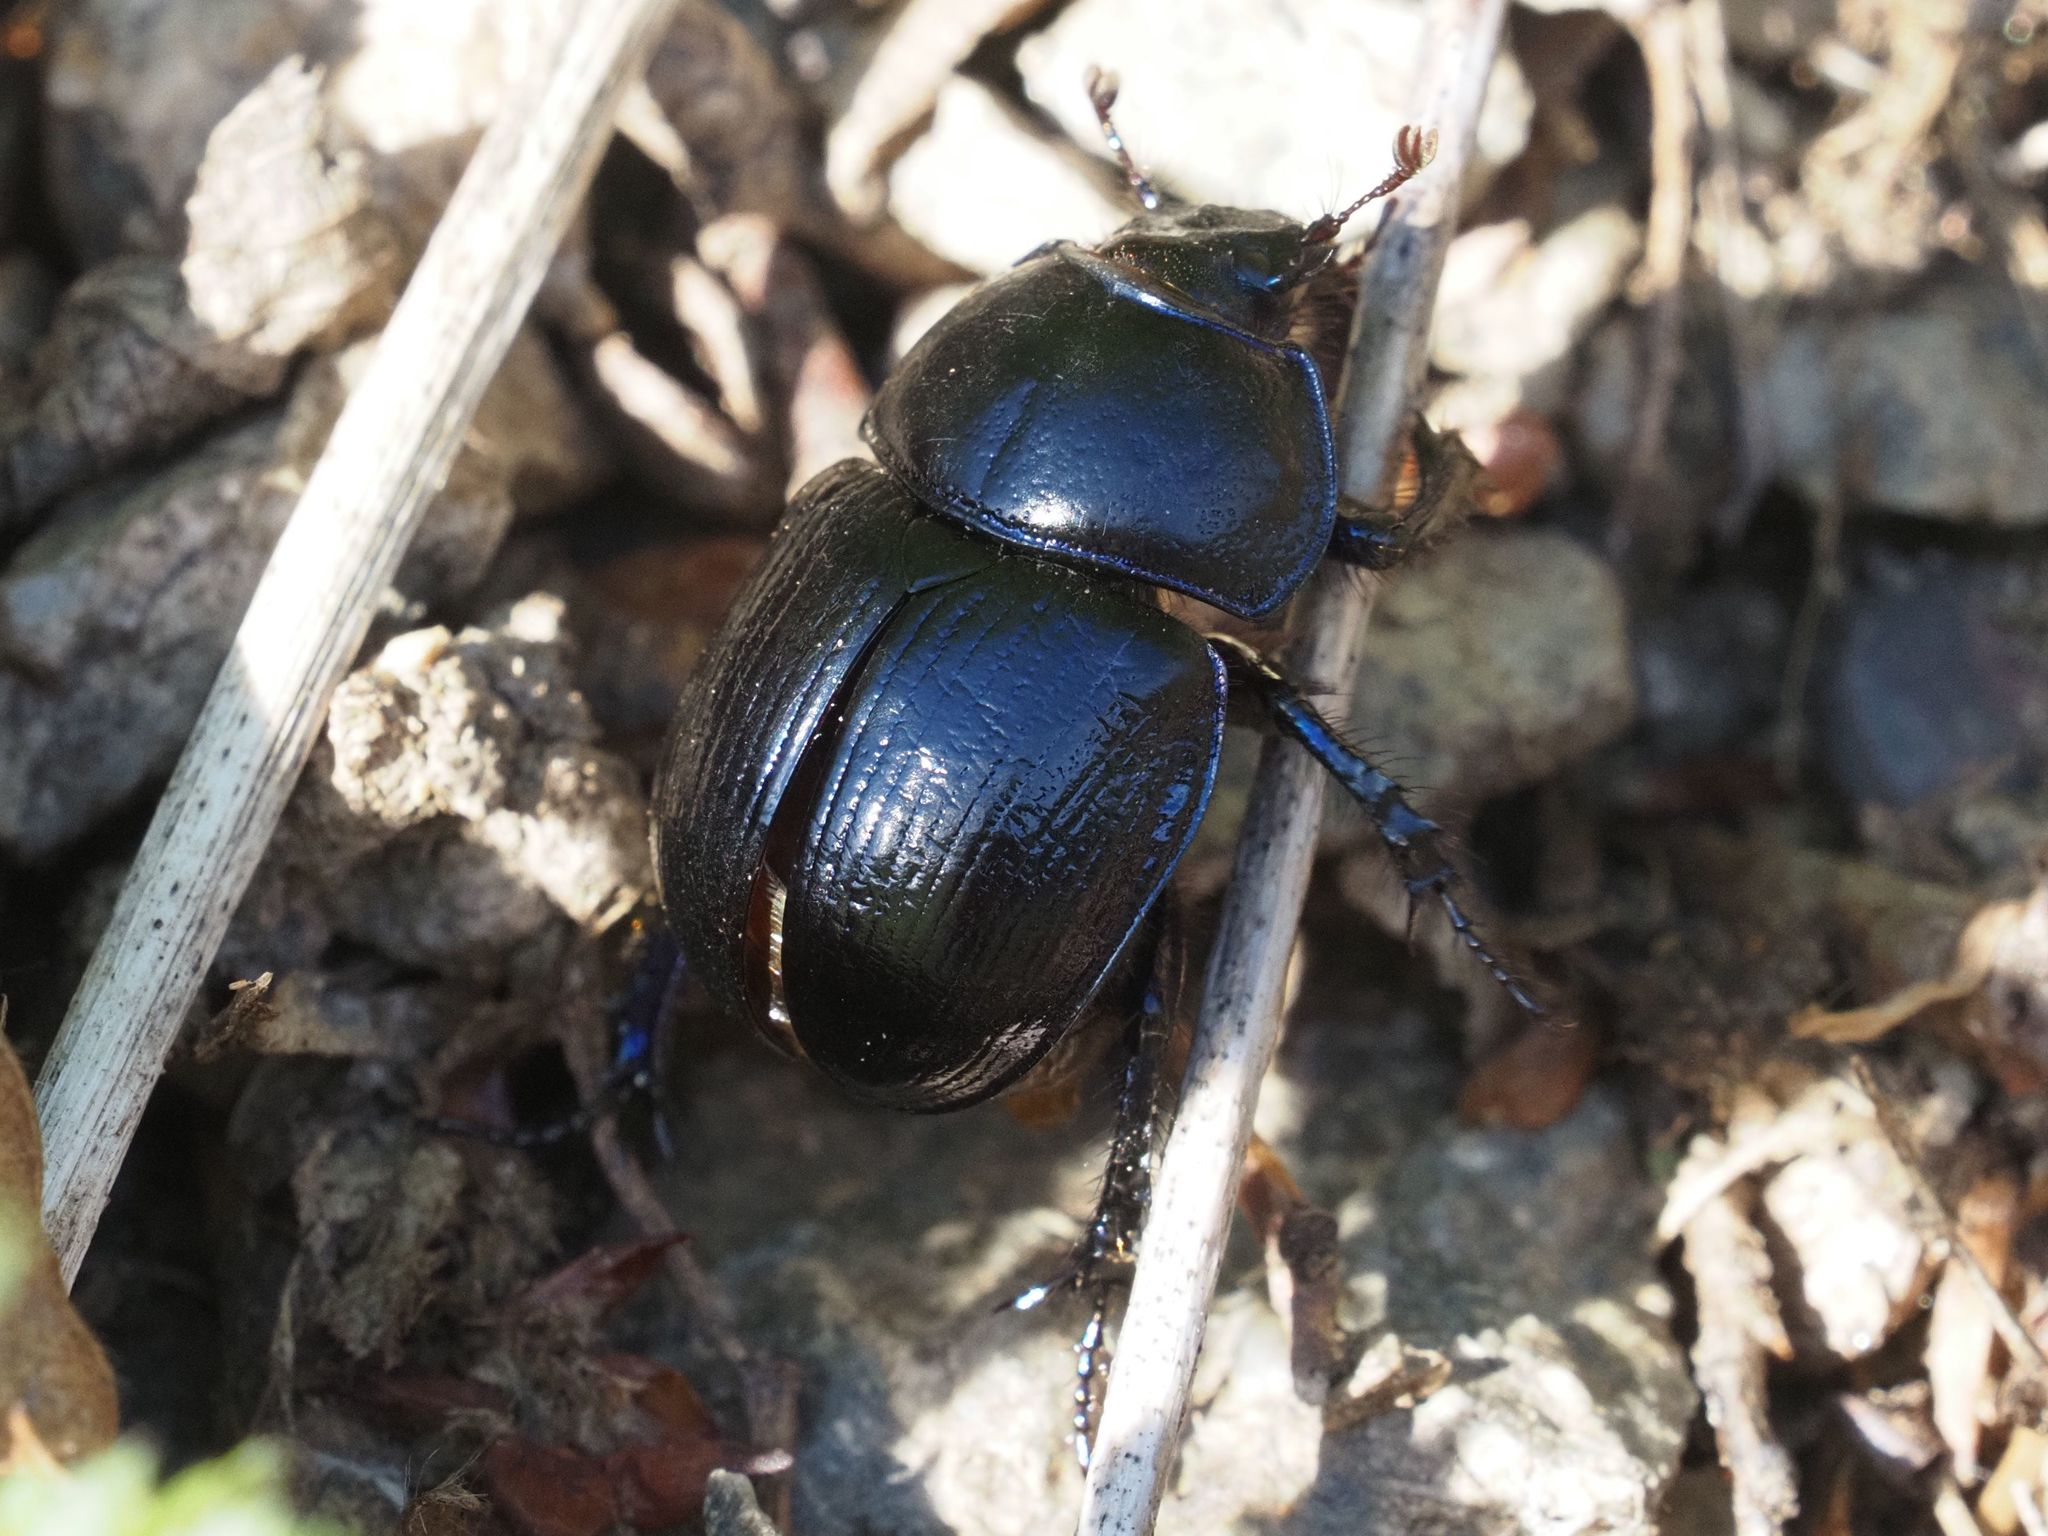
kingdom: Animalia
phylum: Arthropoda
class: Insecta
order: Coleoptera
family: Geotrupidae
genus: Anoplotrupes
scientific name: Anoplotrupes stercorosus
